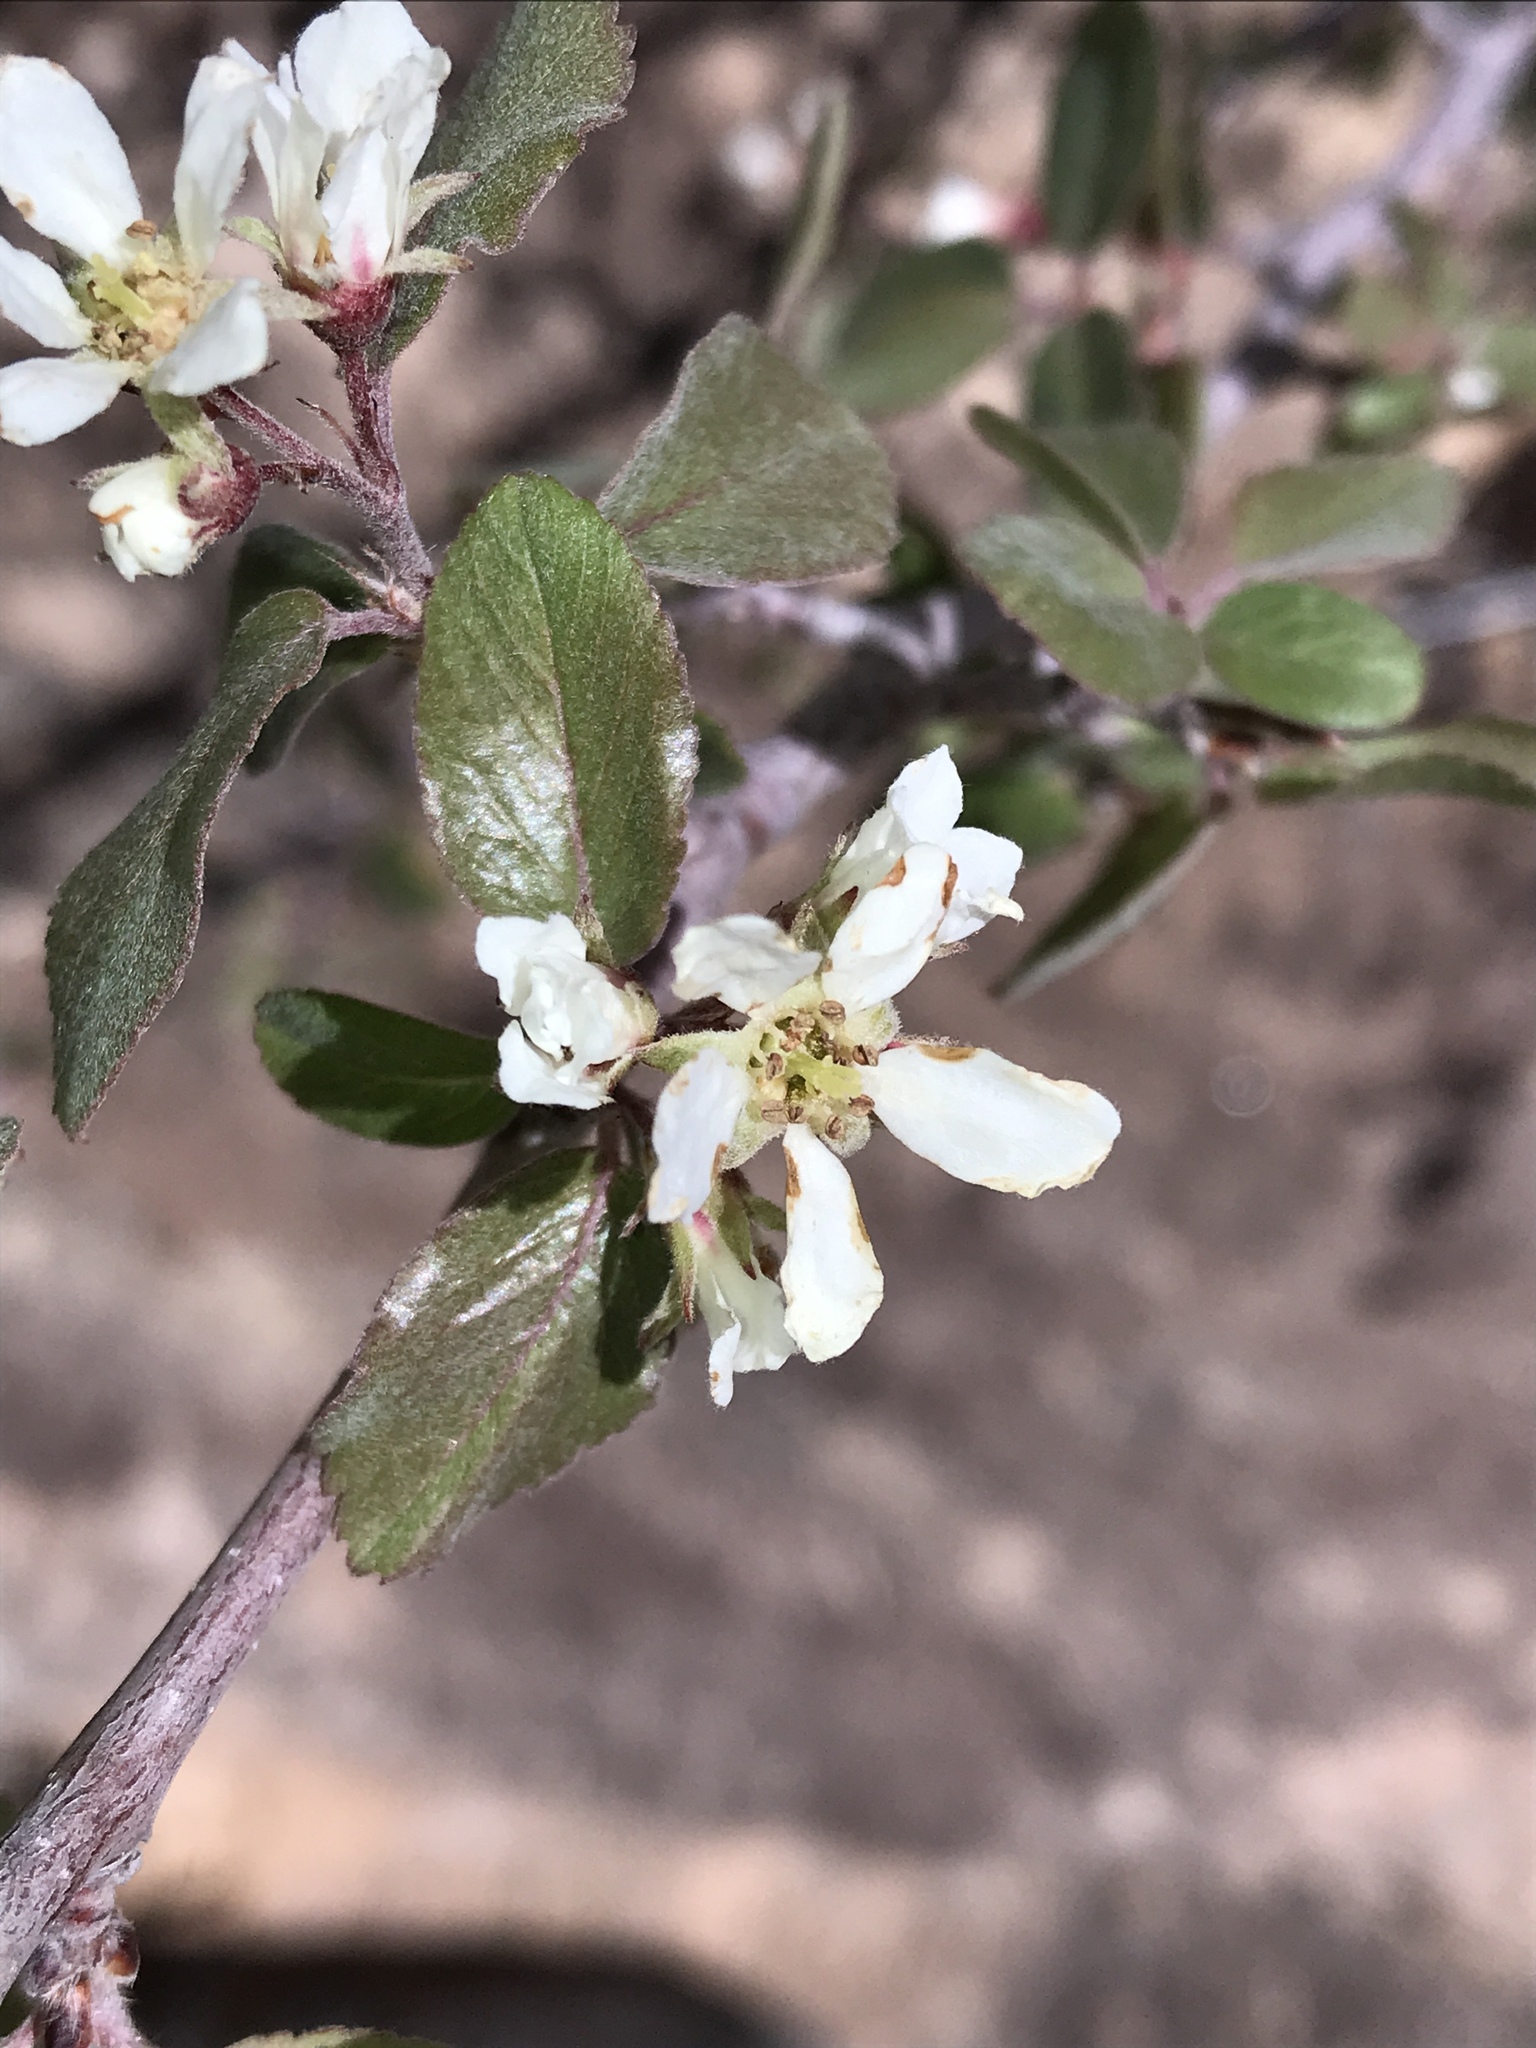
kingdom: Plantae
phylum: Tracheophyta
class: Magnoliopsida
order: Rosales
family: Rosaceae
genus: Amelanchier
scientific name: Amelanchier utahensis
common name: Utah serviceberry
